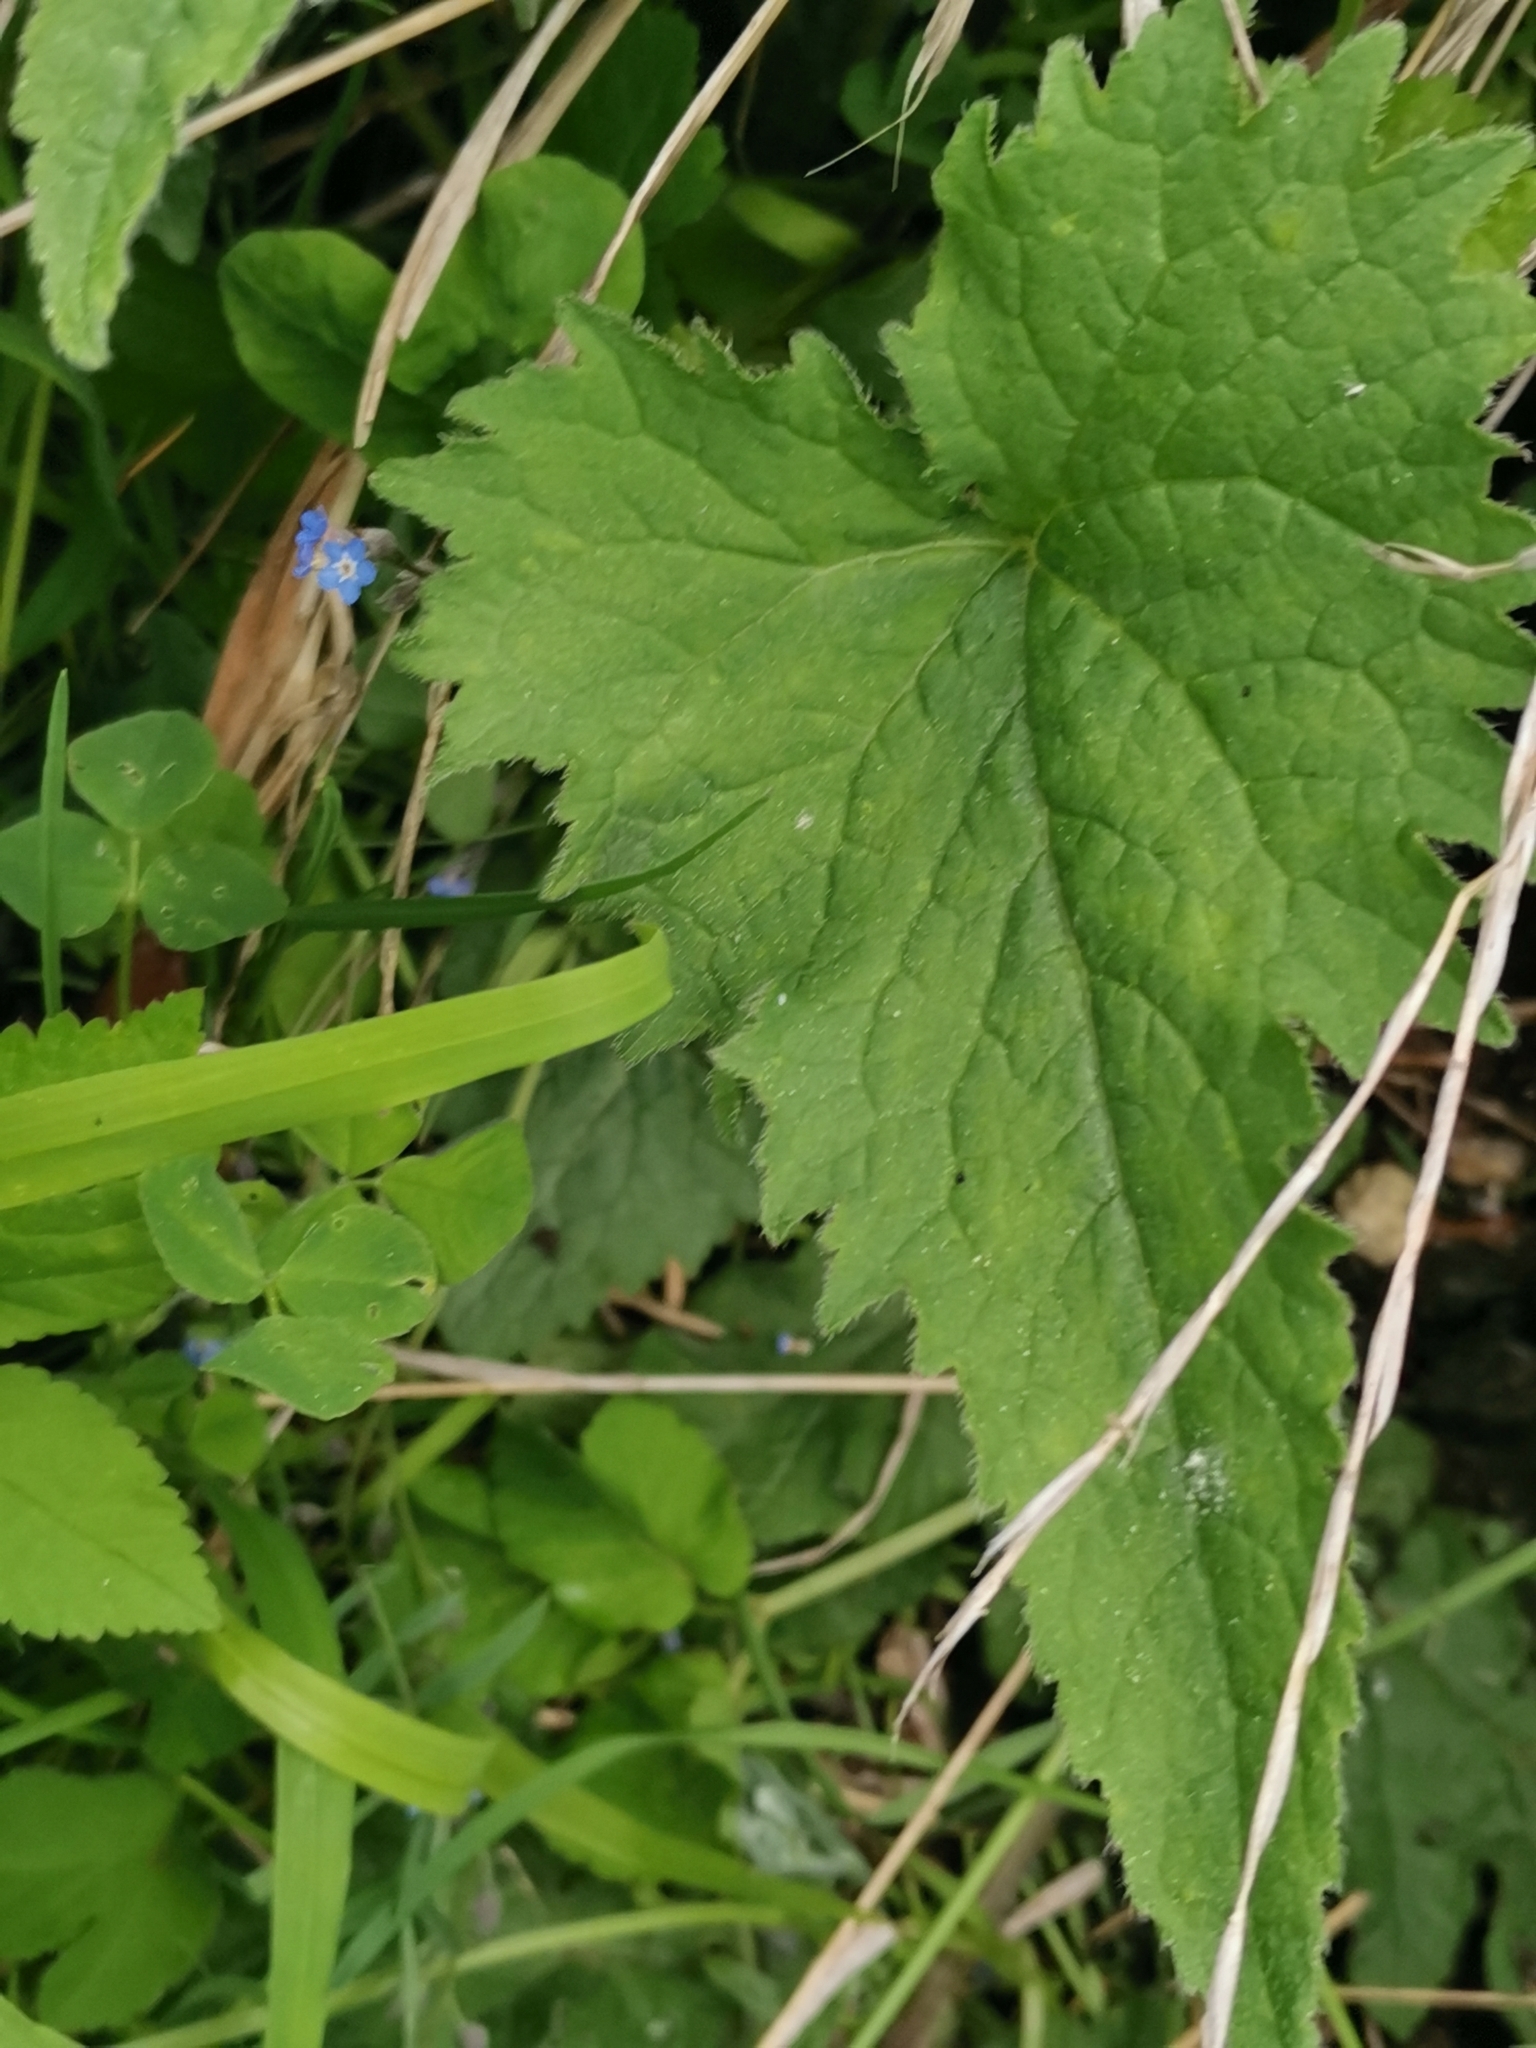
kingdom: Plantae
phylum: Tracheophyta
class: Magnoliopsida
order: Asterales
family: Campanulaceae
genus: Campanula
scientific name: Campanula trachelium
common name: Nettle-leaved bellflower
